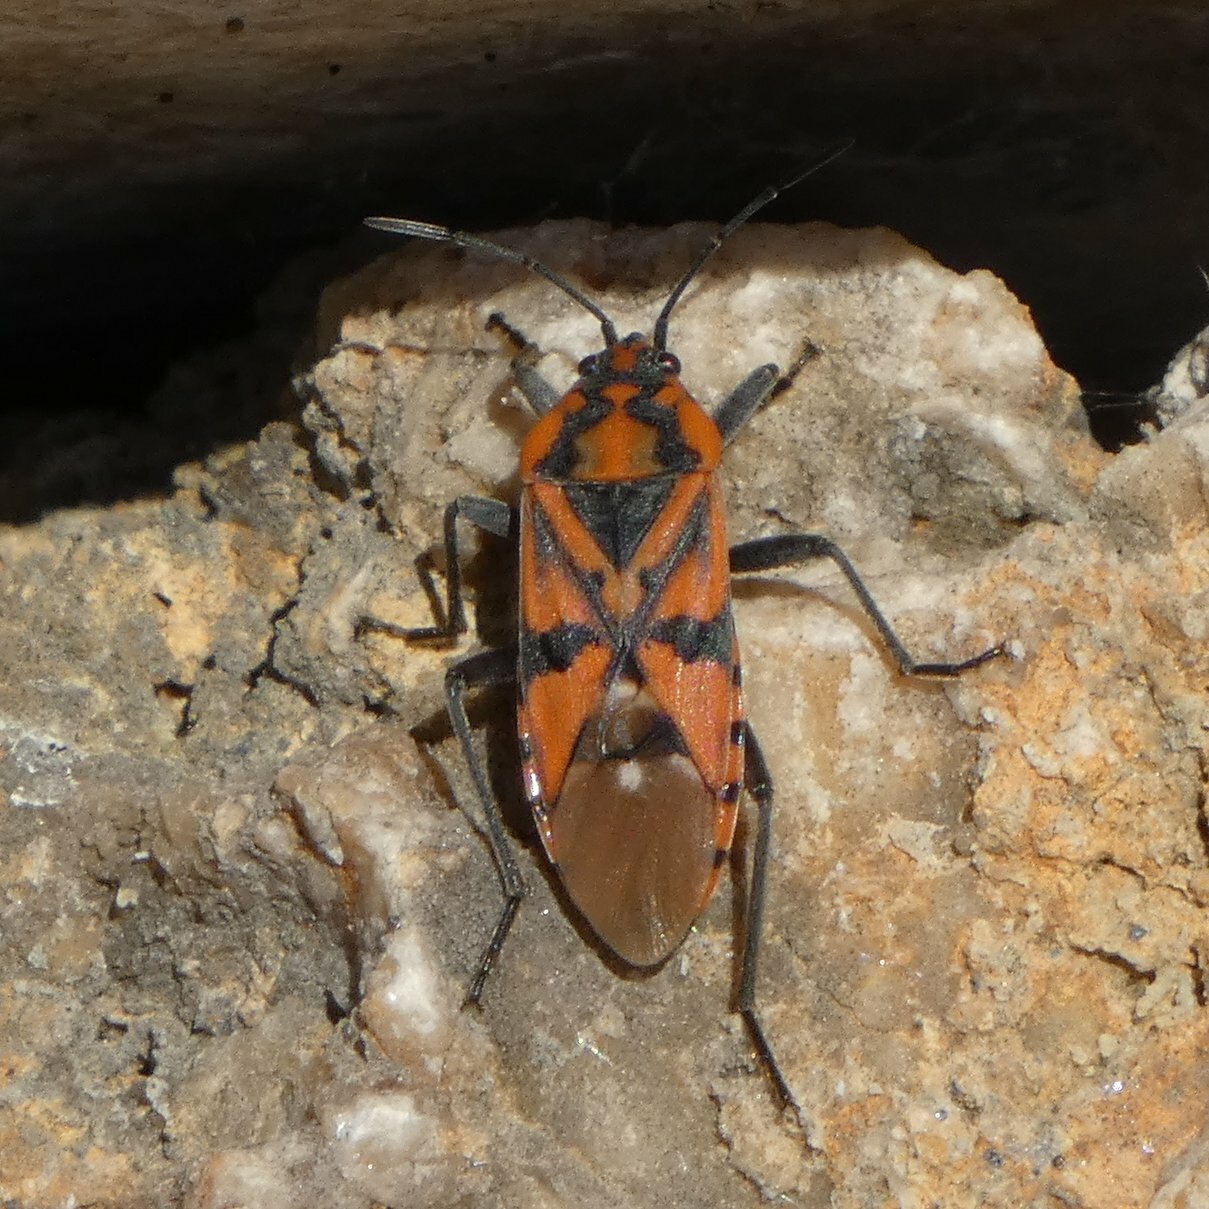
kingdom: Animalia
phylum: Arthropoda
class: Insecta
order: Hemiptera
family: Lygaeidae
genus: Spilostethus
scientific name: Spilostethus pandurus
